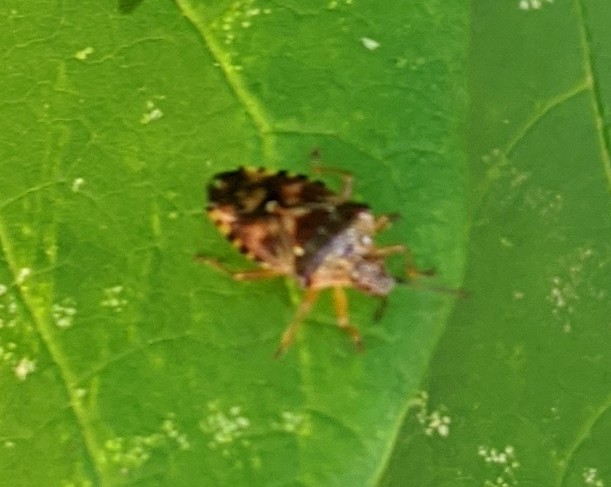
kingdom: Animalia
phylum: Arthropoda
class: Insecta
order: Hemiptera
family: Acanthosomatidae
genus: Elasmucha
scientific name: Elasmucha lateralis
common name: Shield bug
